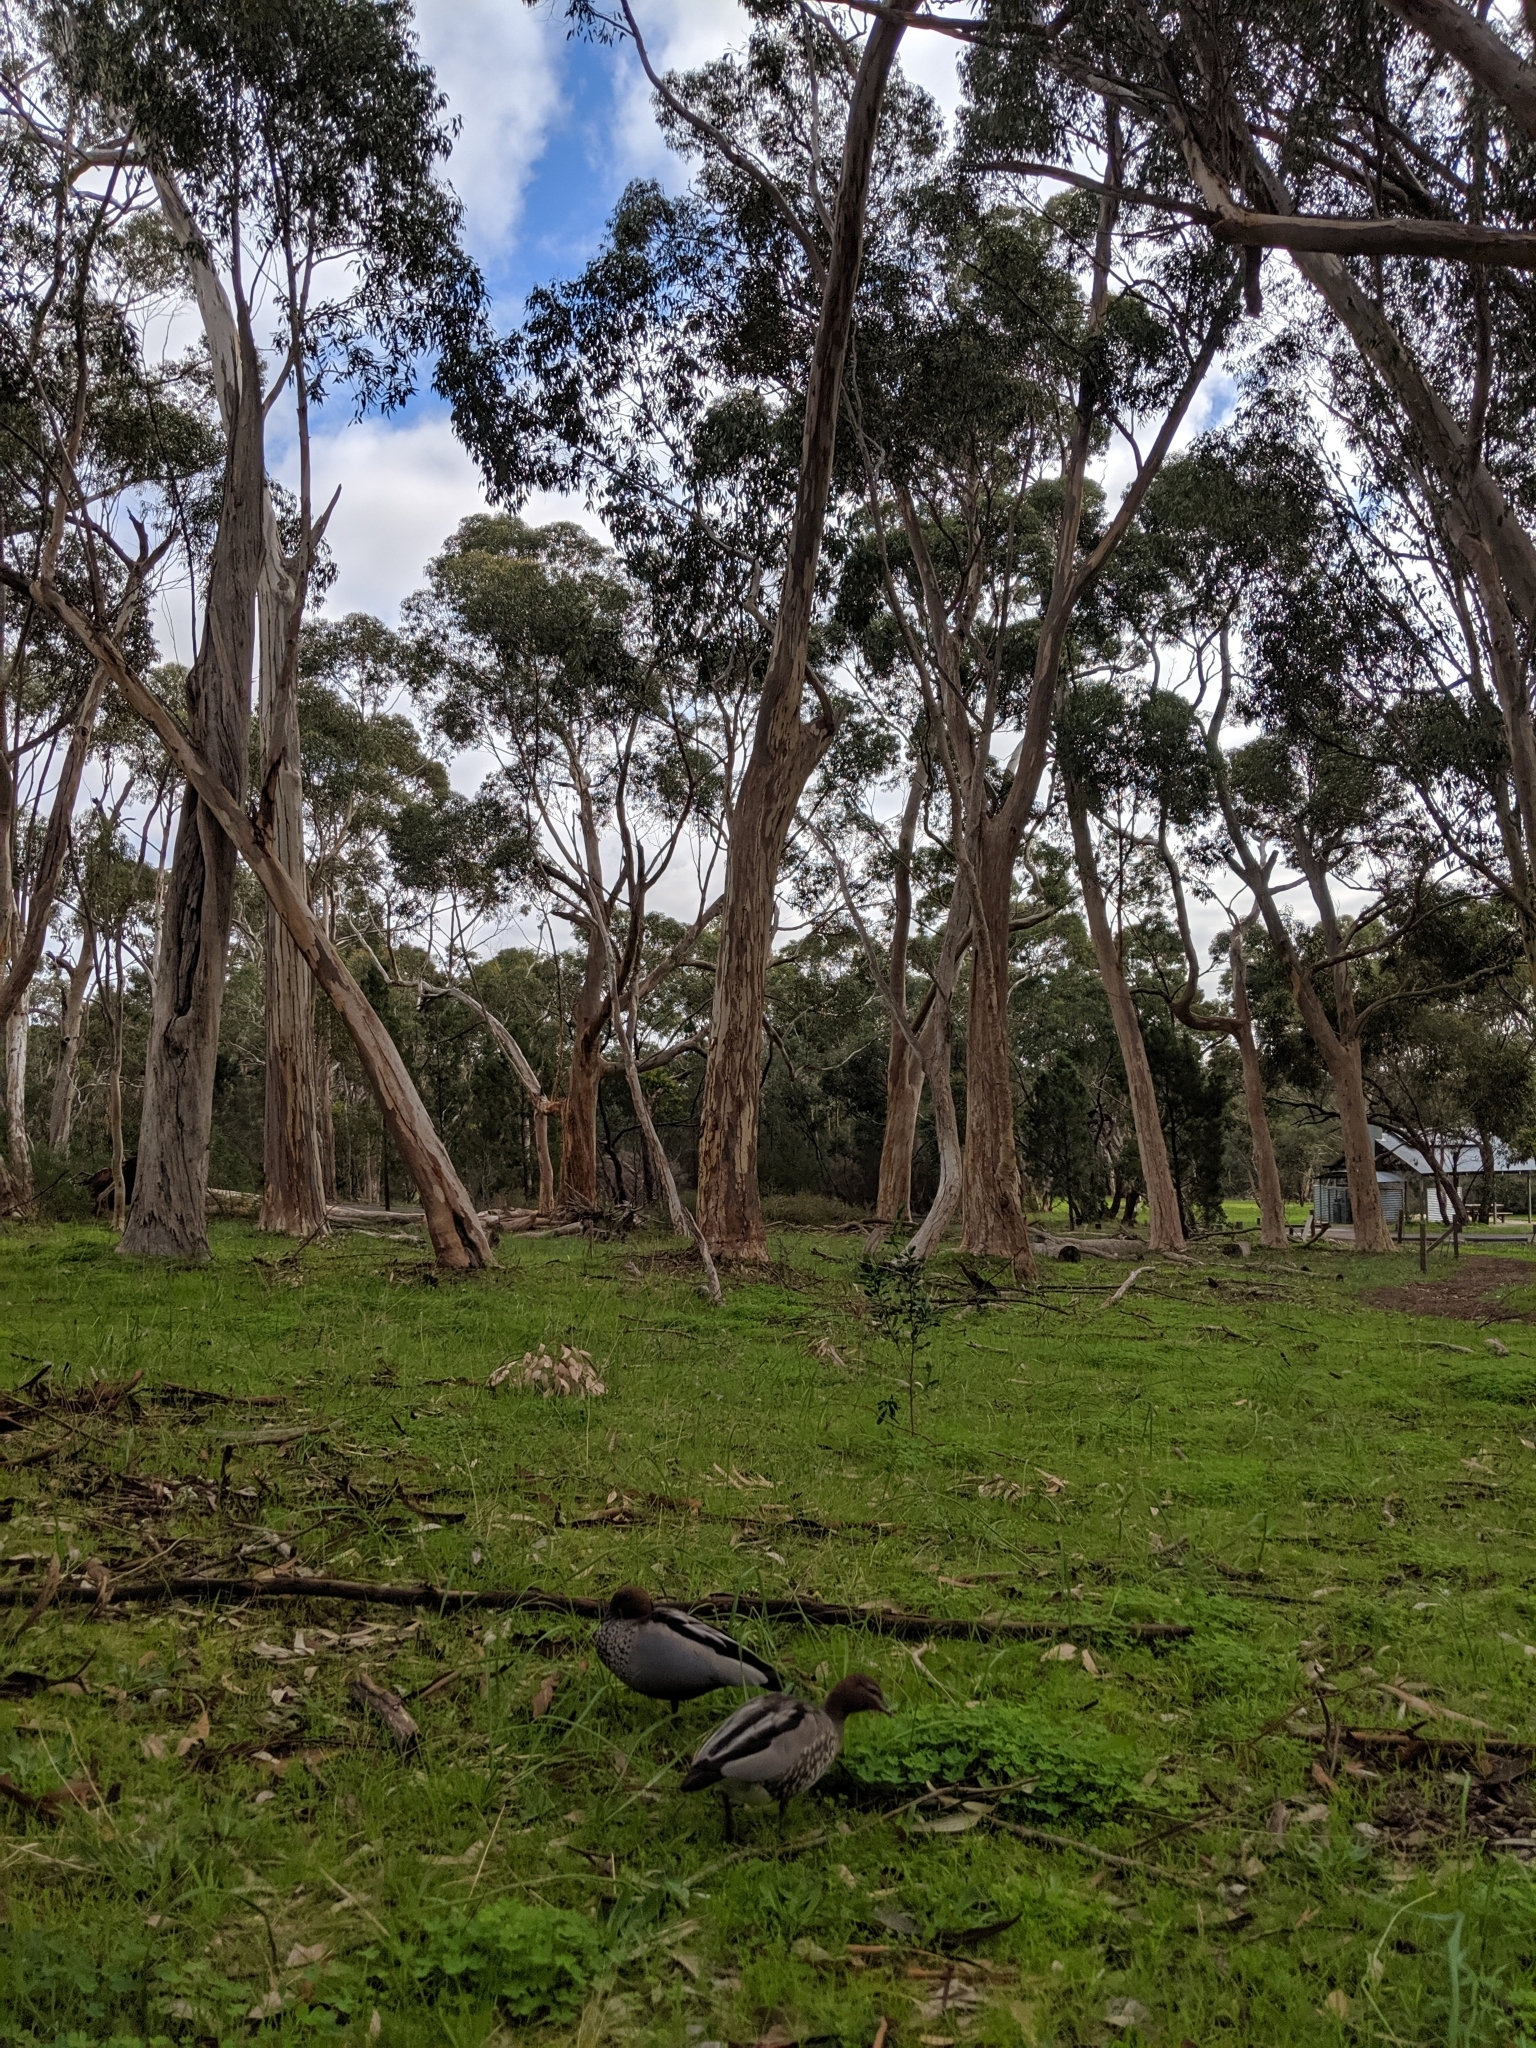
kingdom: Animalia
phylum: Chordata
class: Aves
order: Anseriformes
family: Anatidae
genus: Chenonetta
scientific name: Chenonetta jubata
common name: Maned duck
